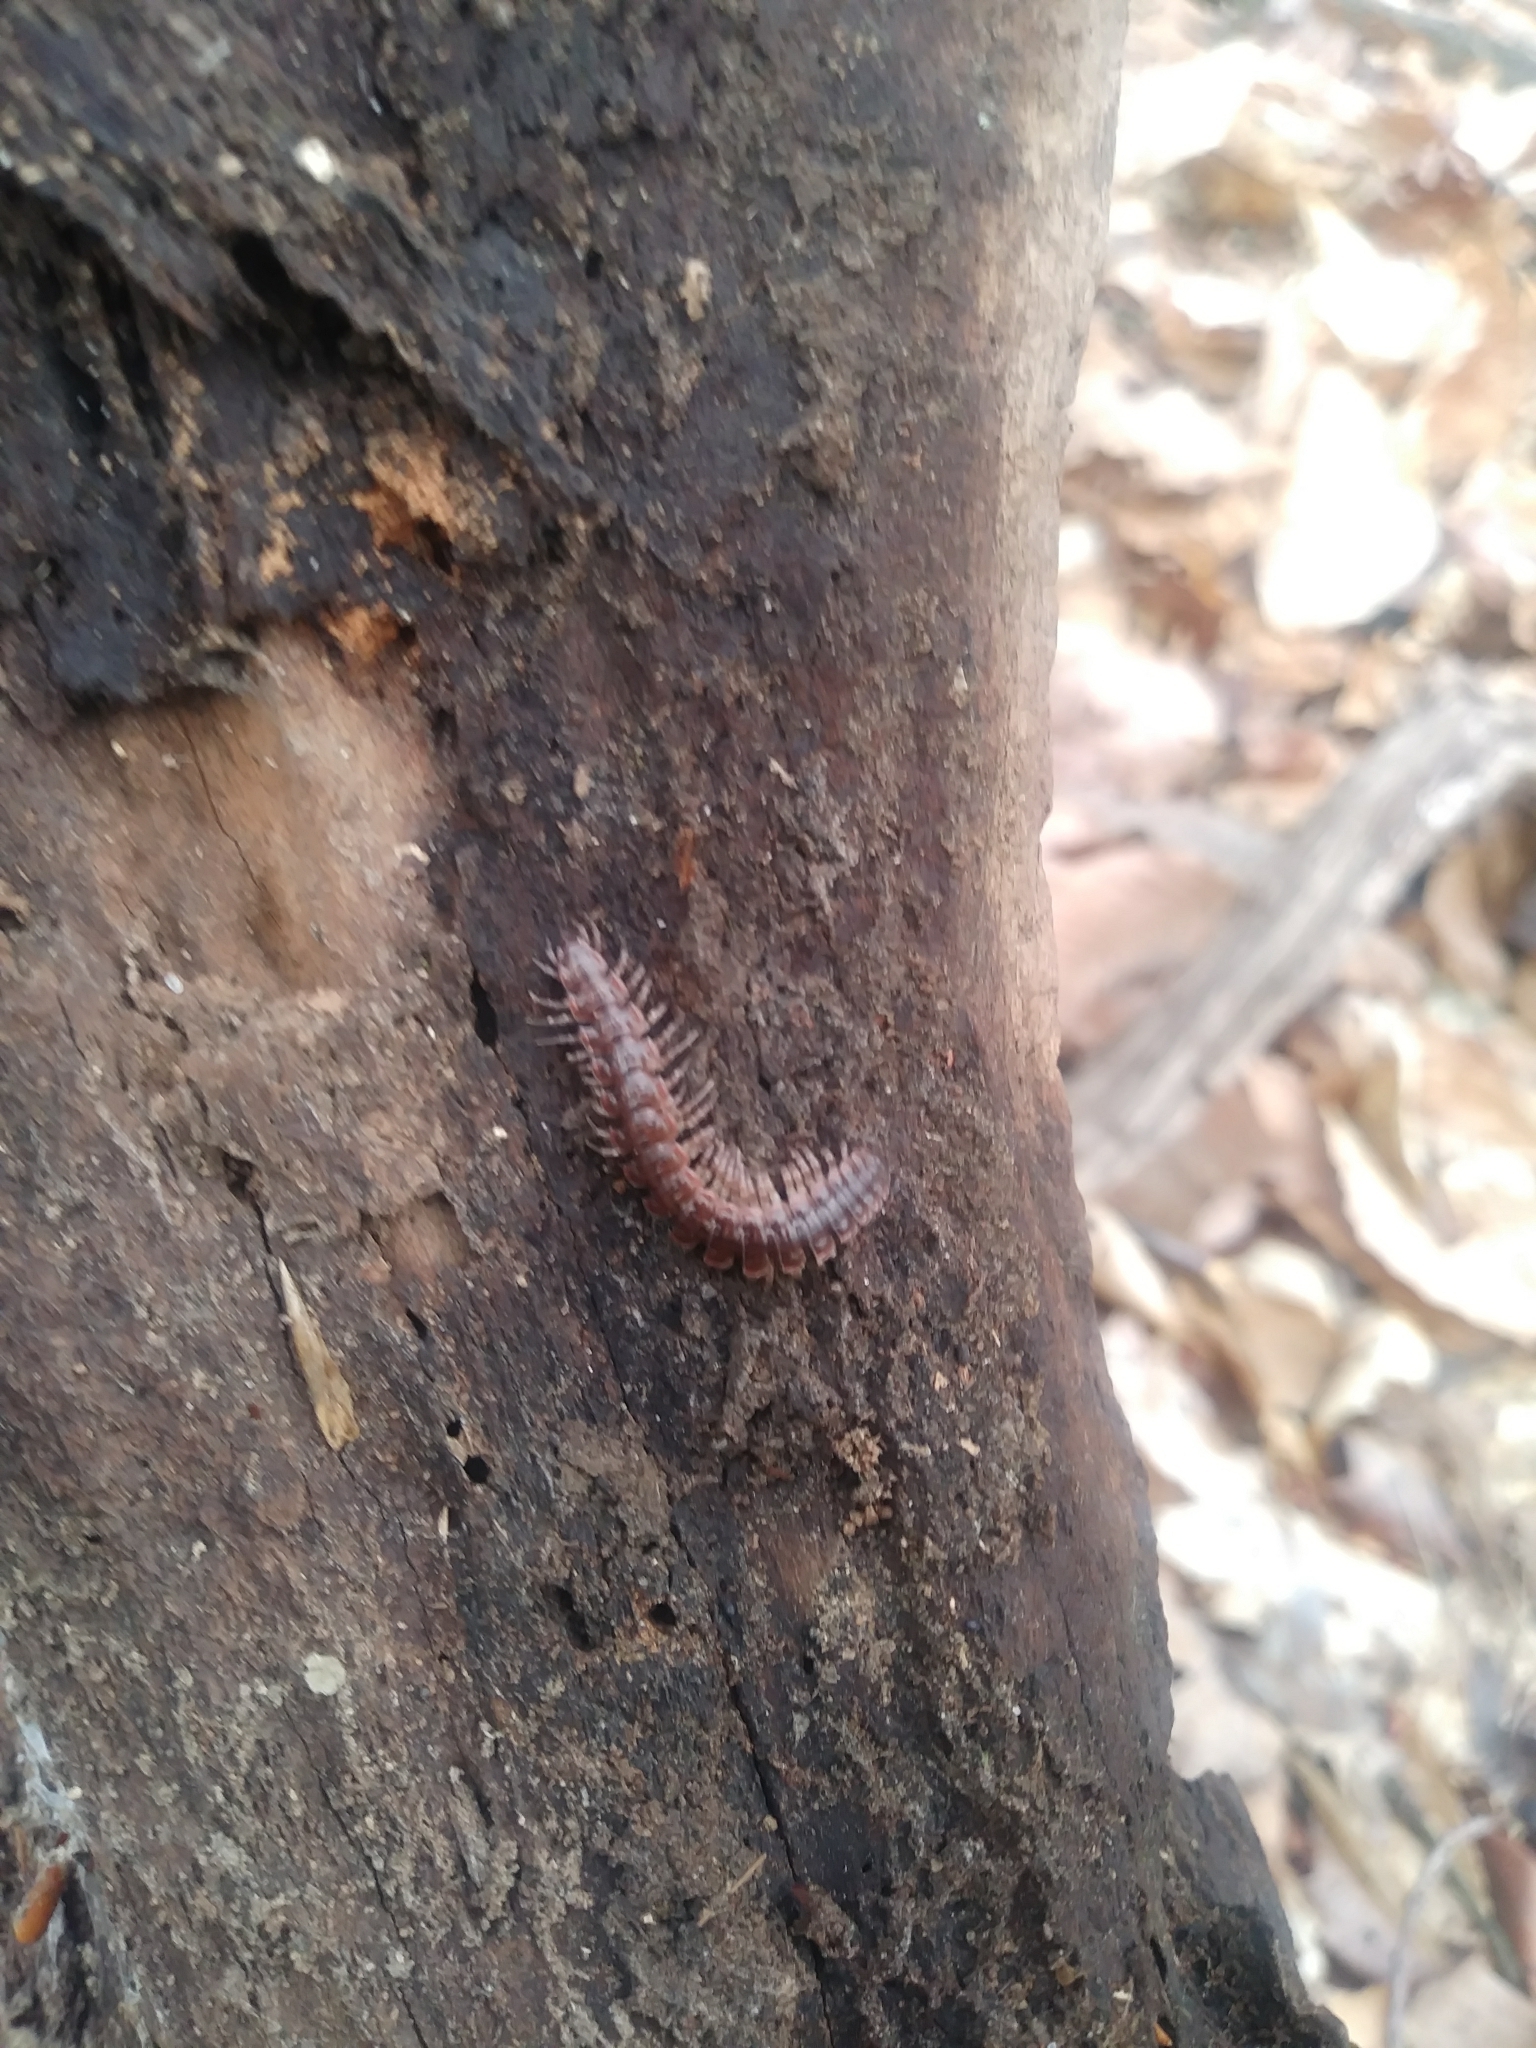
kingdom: Animalia
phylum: Arthropoda
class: Diplopoda
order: Polydesmida
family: Polydesmidae
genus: Pseudopolydesmus
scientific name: Pseudopolydesmus serratus
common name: Common pink flat-back millipede
